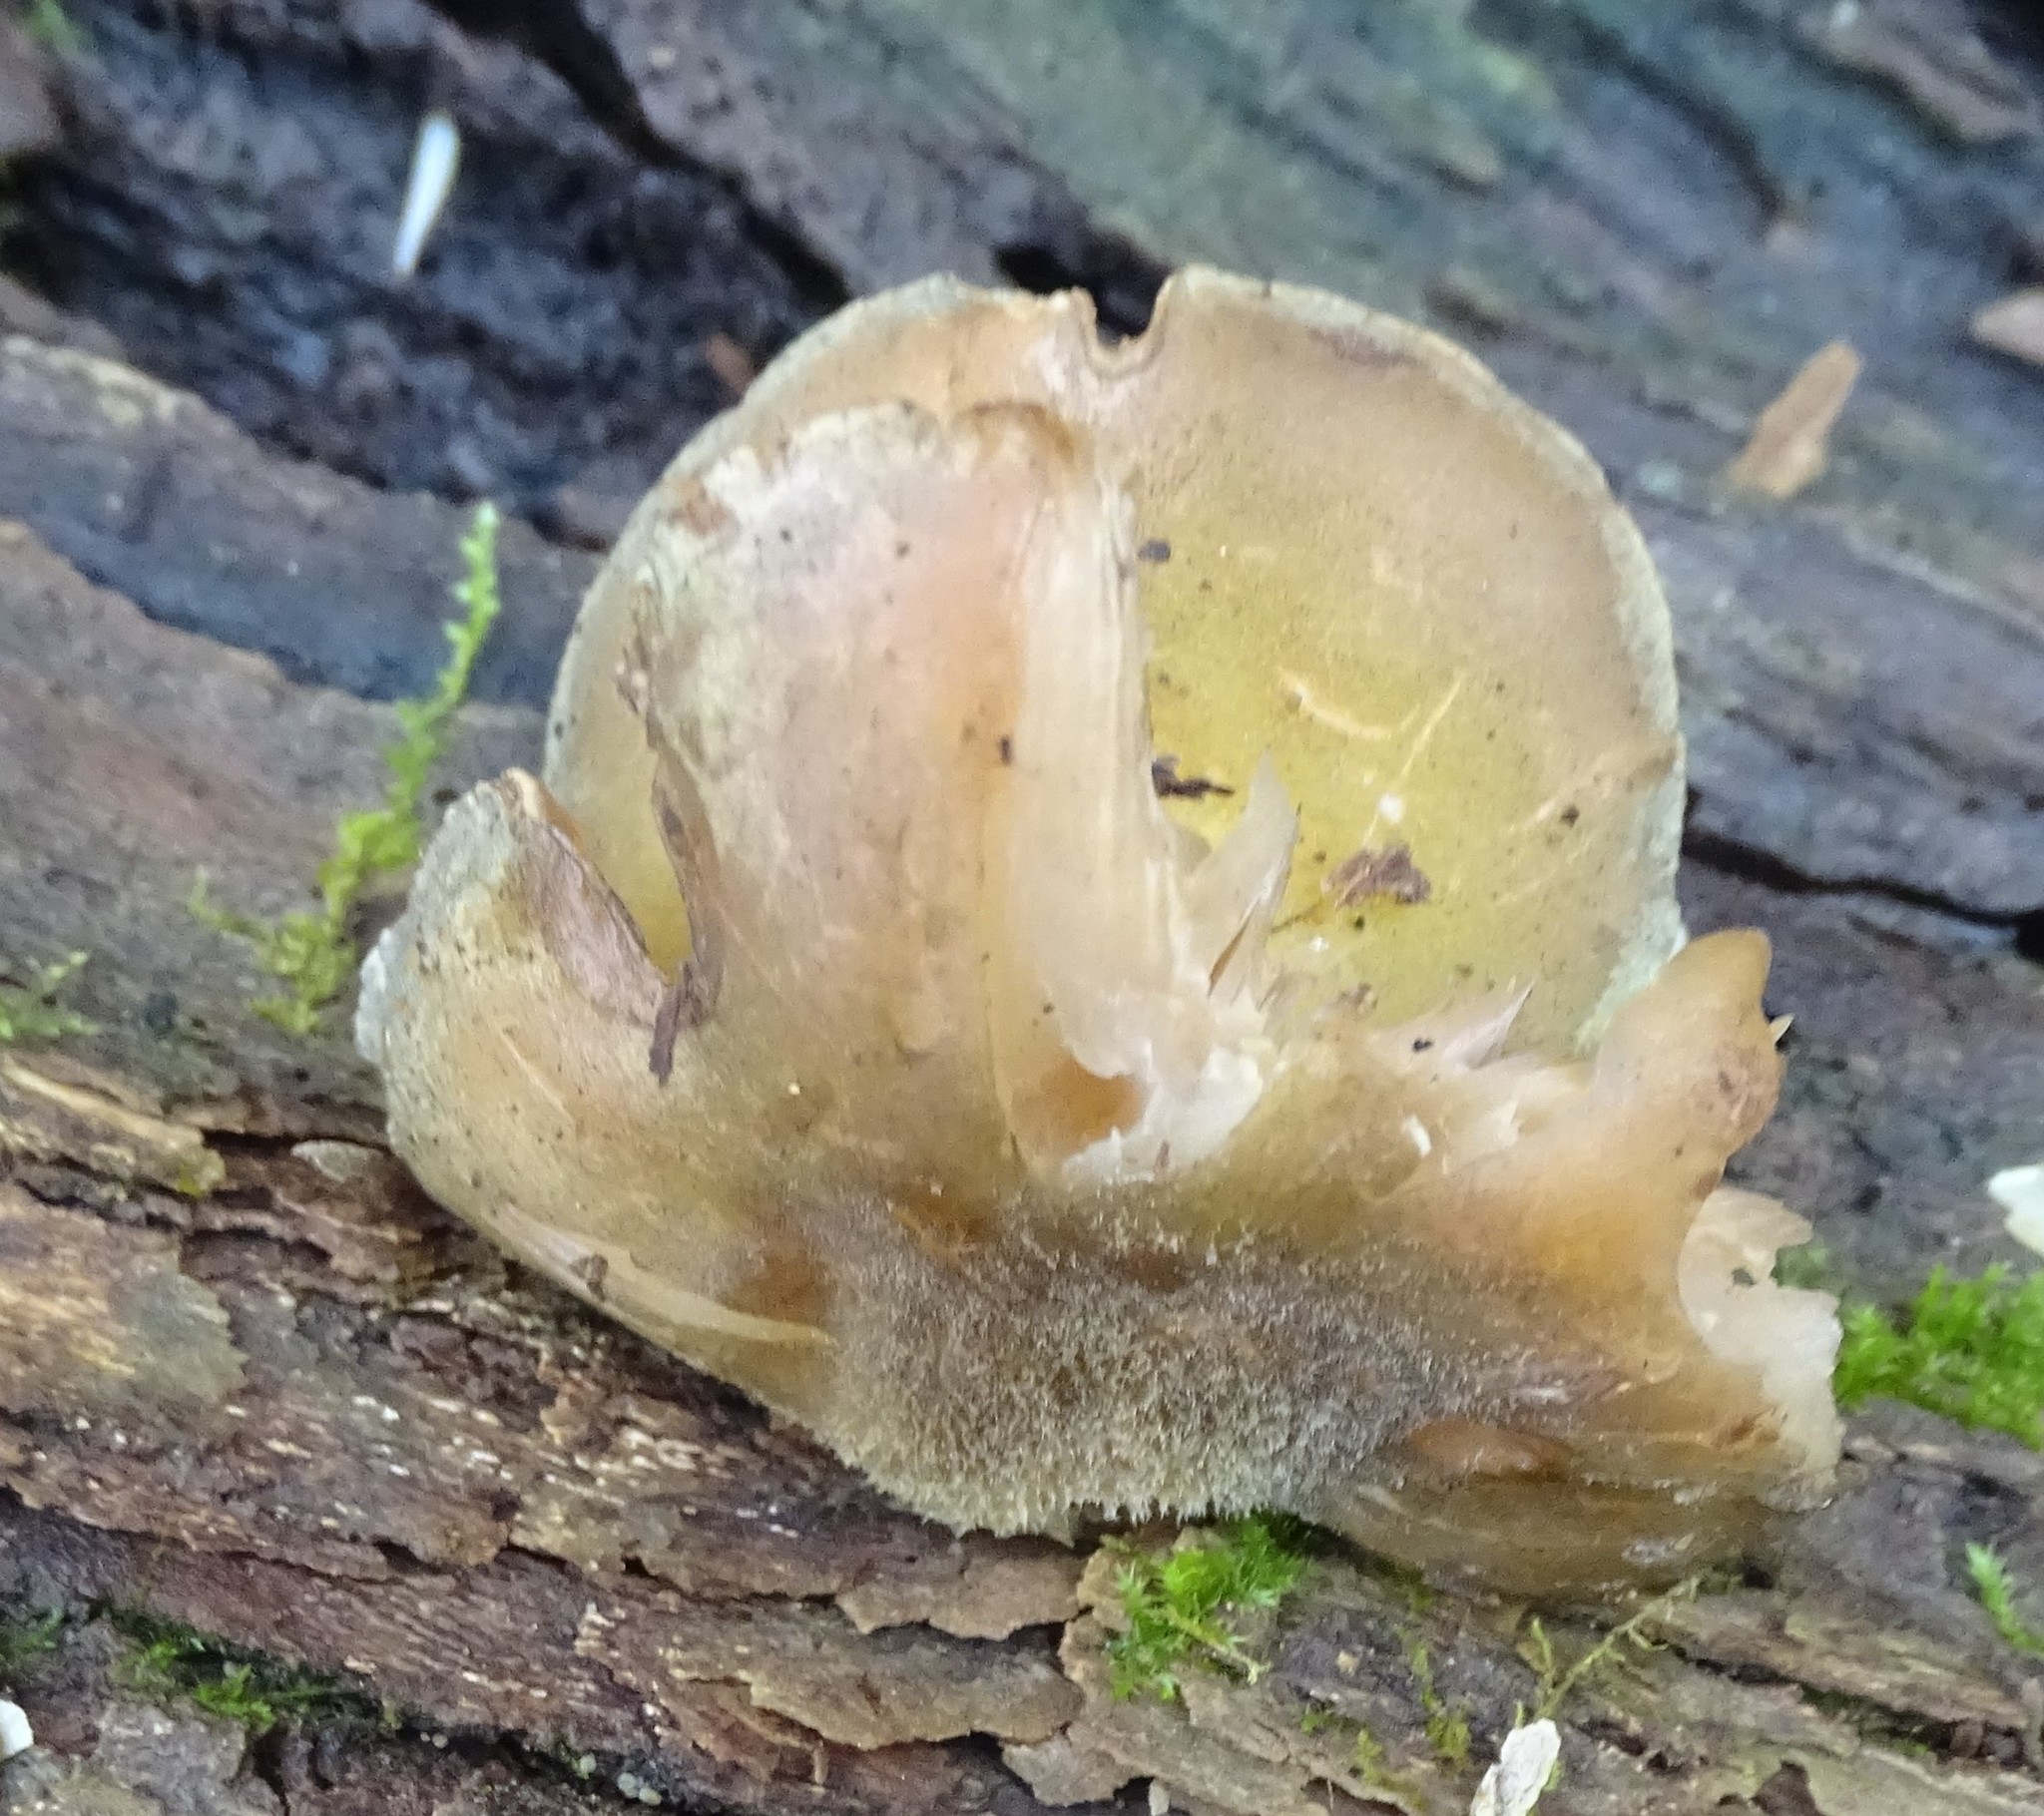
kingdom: Fungi
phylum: Basidiomycota
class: Agaricomycetes
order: Agaricales
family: Sarcomyxaceae
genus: Sarcomyxa
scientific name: Sarcomyxa serotina
